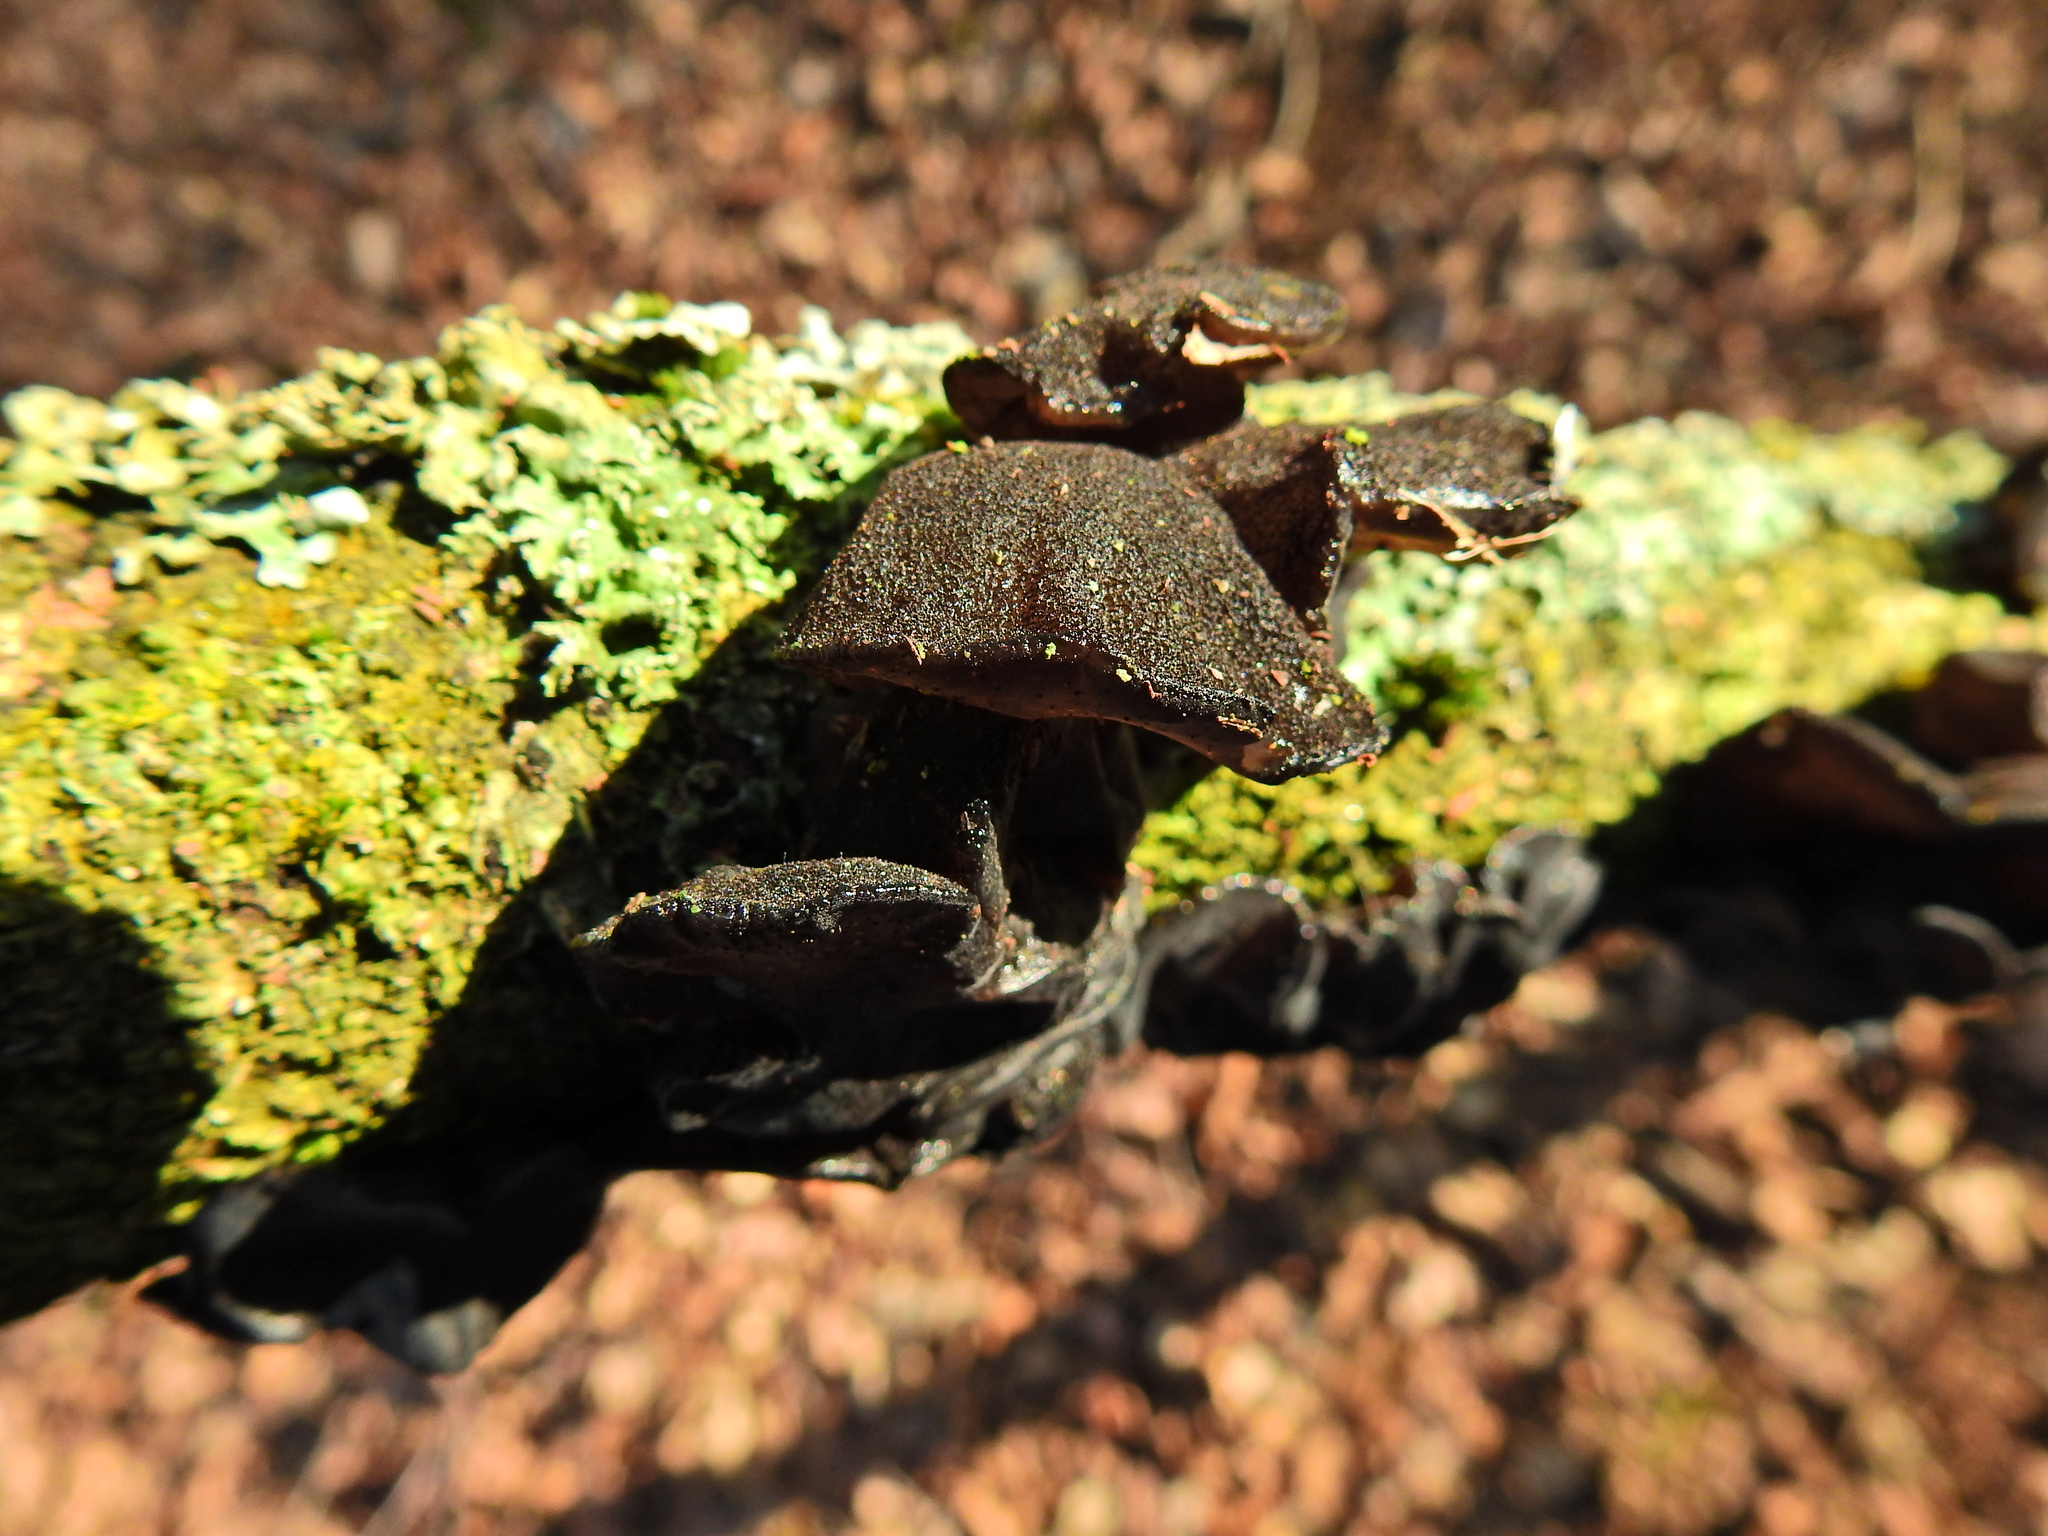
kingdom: Fungi
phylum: Basidiomycota
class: Agaricomycetes
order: Auriculariales
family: Auriculariaceae
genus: Exidia
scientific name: Exidia glandulosa
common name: Witches' butter
